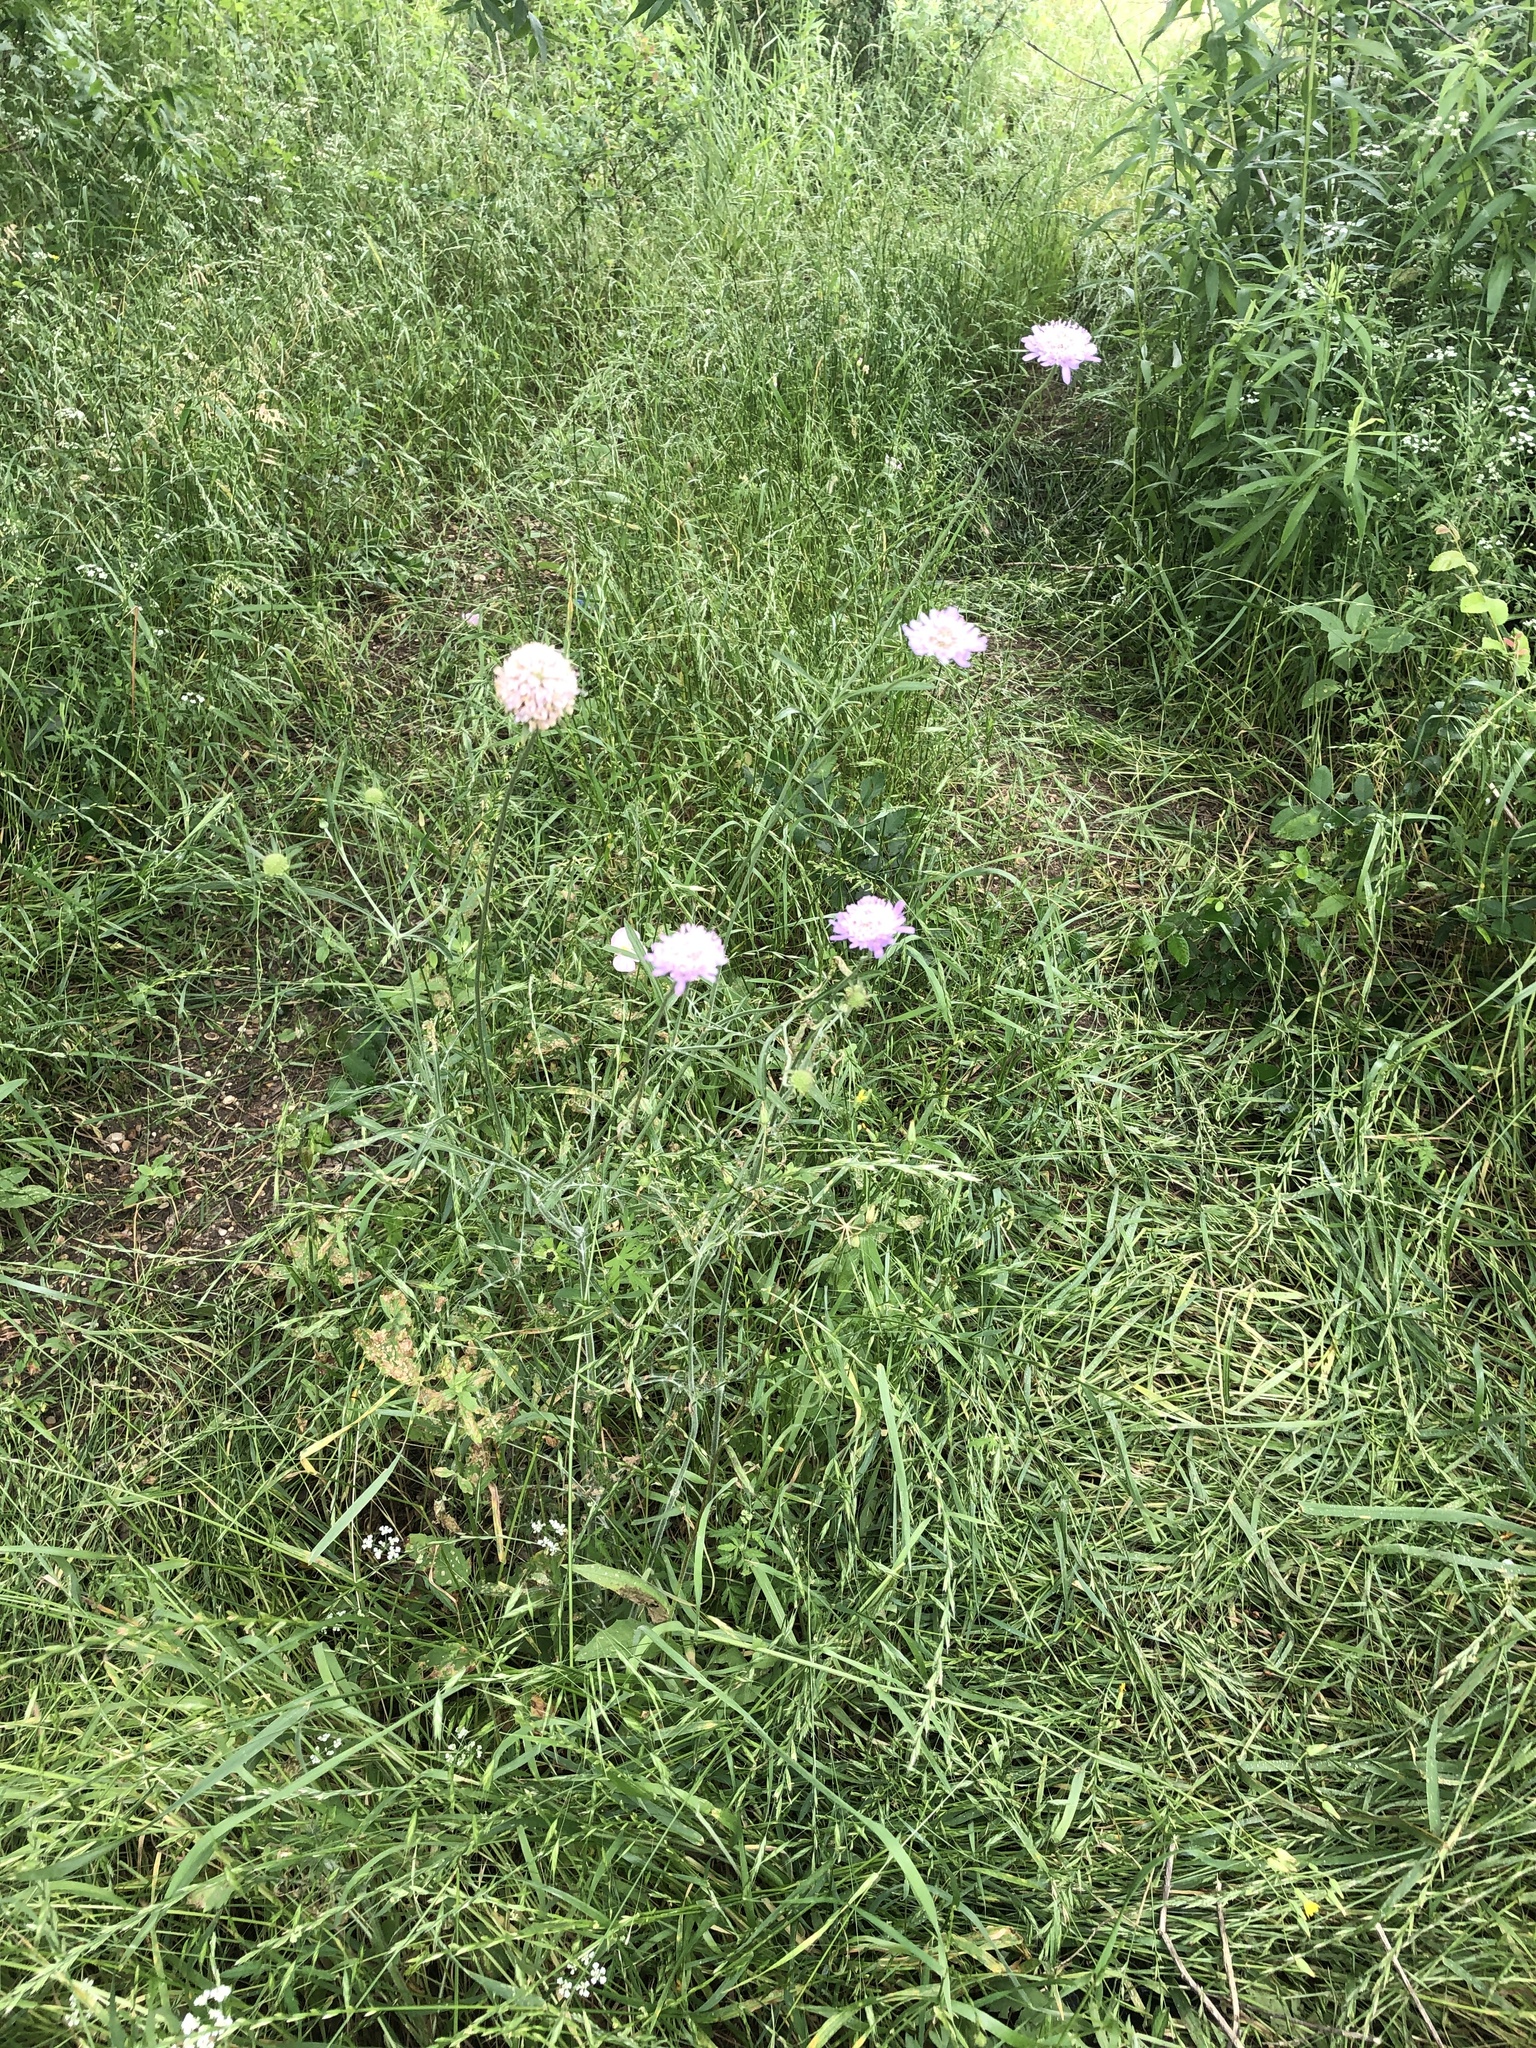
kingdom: Plantae
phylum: Tracheophyta
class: Magnoliopsida
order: Dipsacales
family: Caprifoliaceae
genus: Sixalix
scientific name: Sixalix atropurpurea
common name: Sweet scabious
